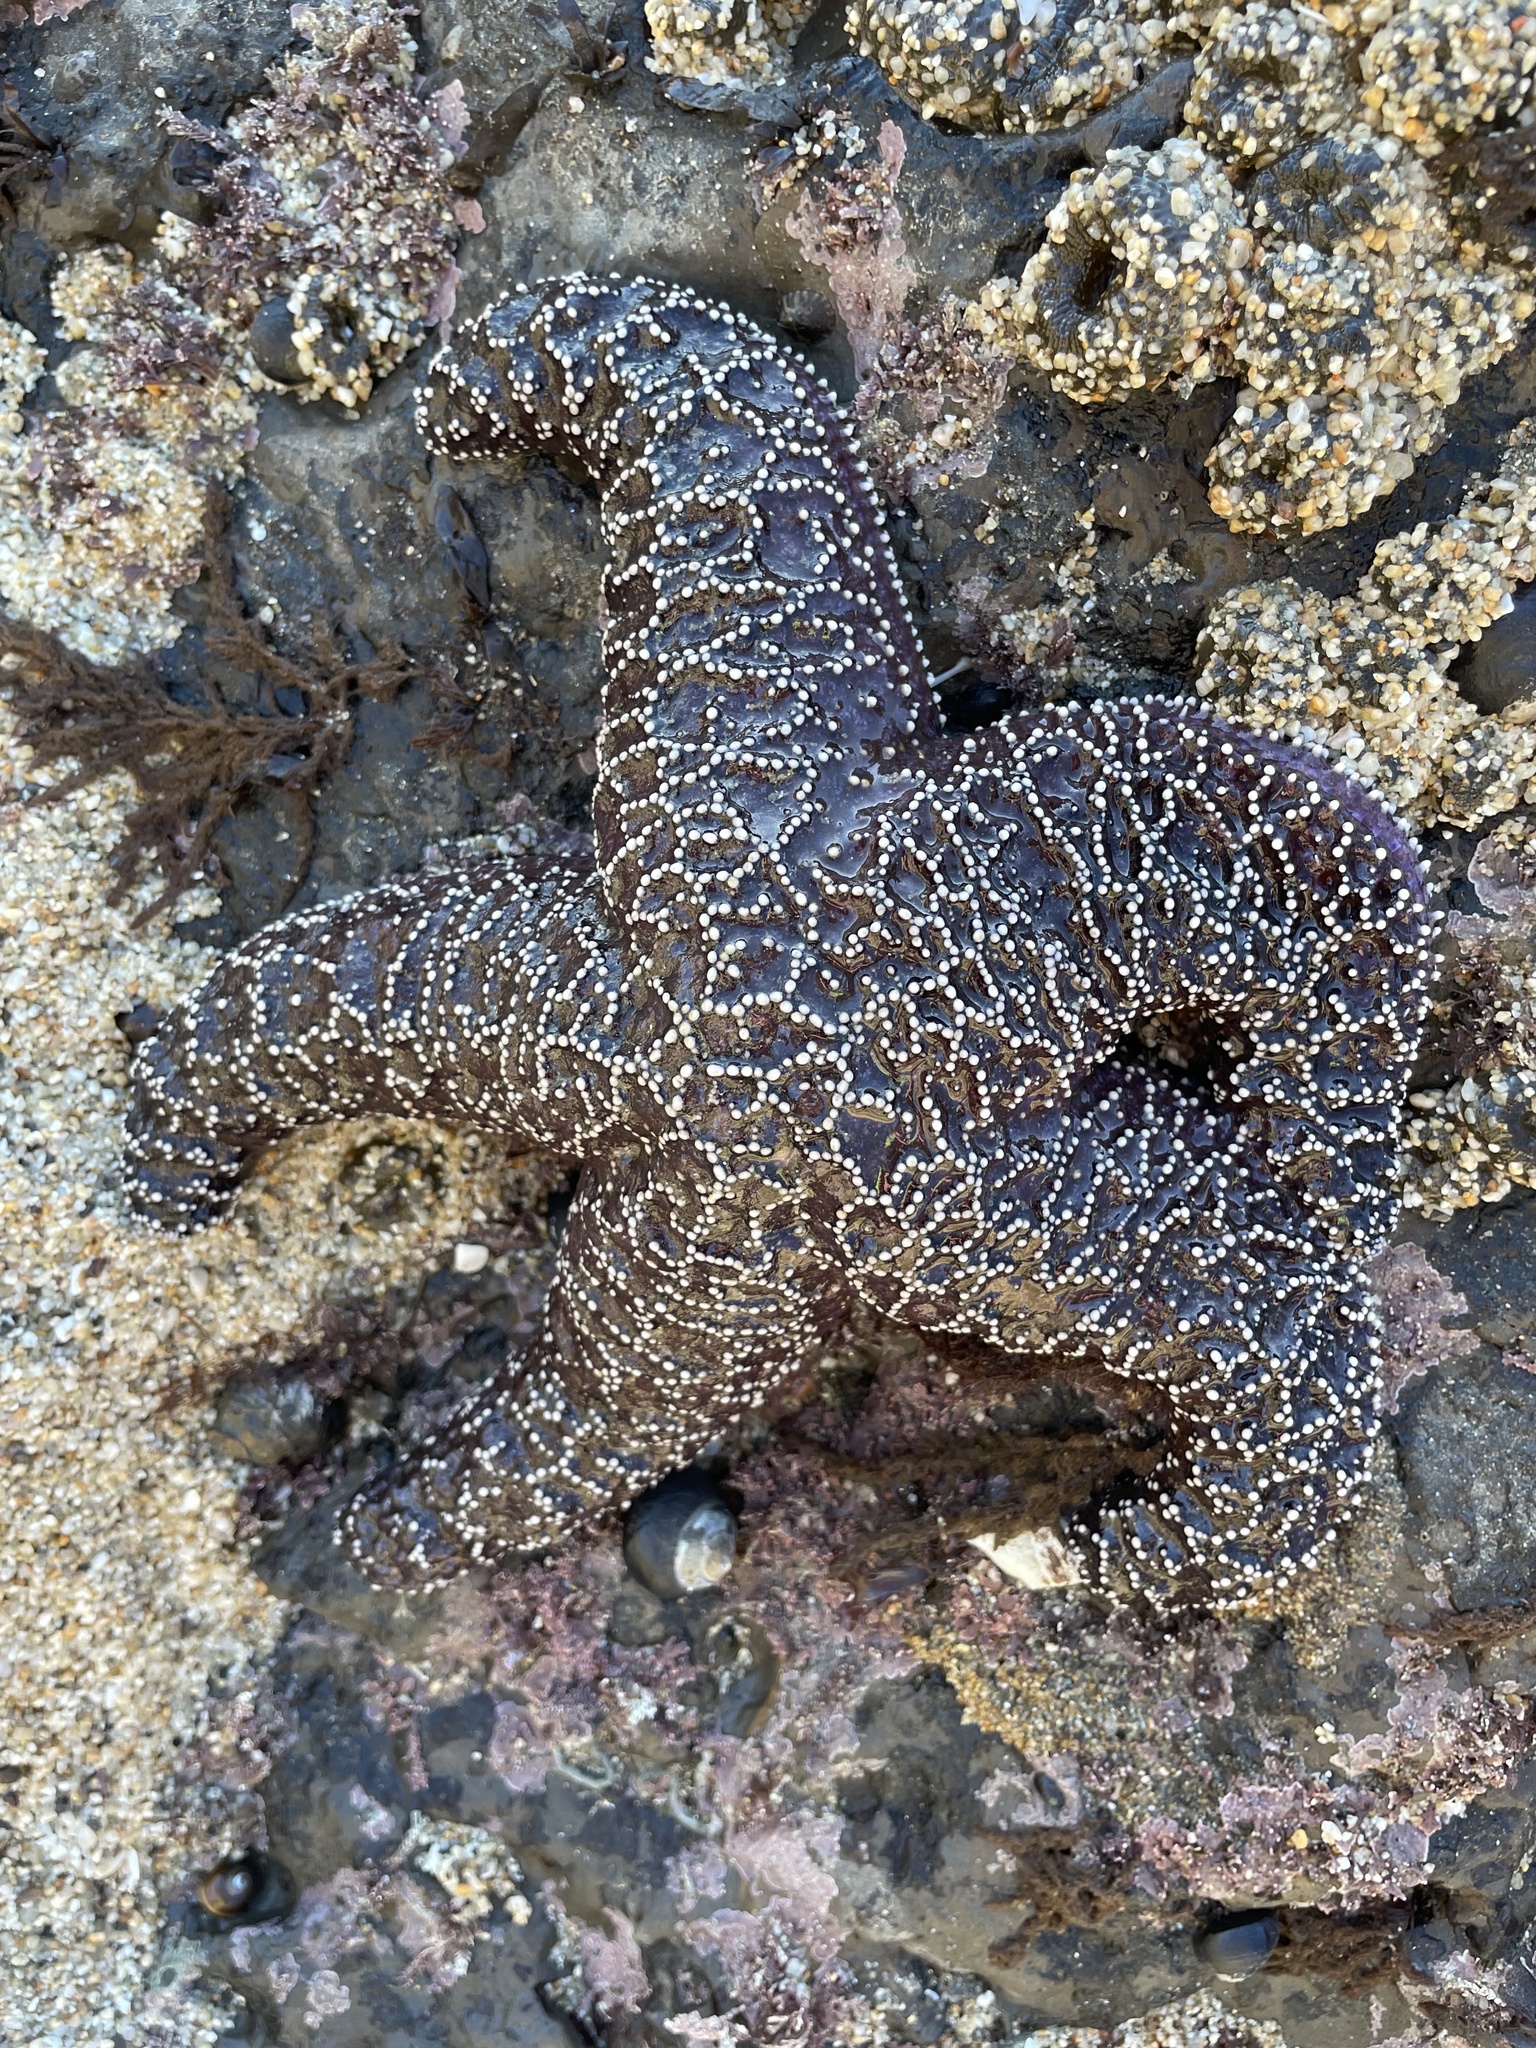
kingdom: Animalia
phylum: Echinodermata
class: Asteroidea
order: Forcipulatida
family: Asteriidae
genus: Pisaster
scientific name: Pisaster ochraceus
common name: Ochre stars
